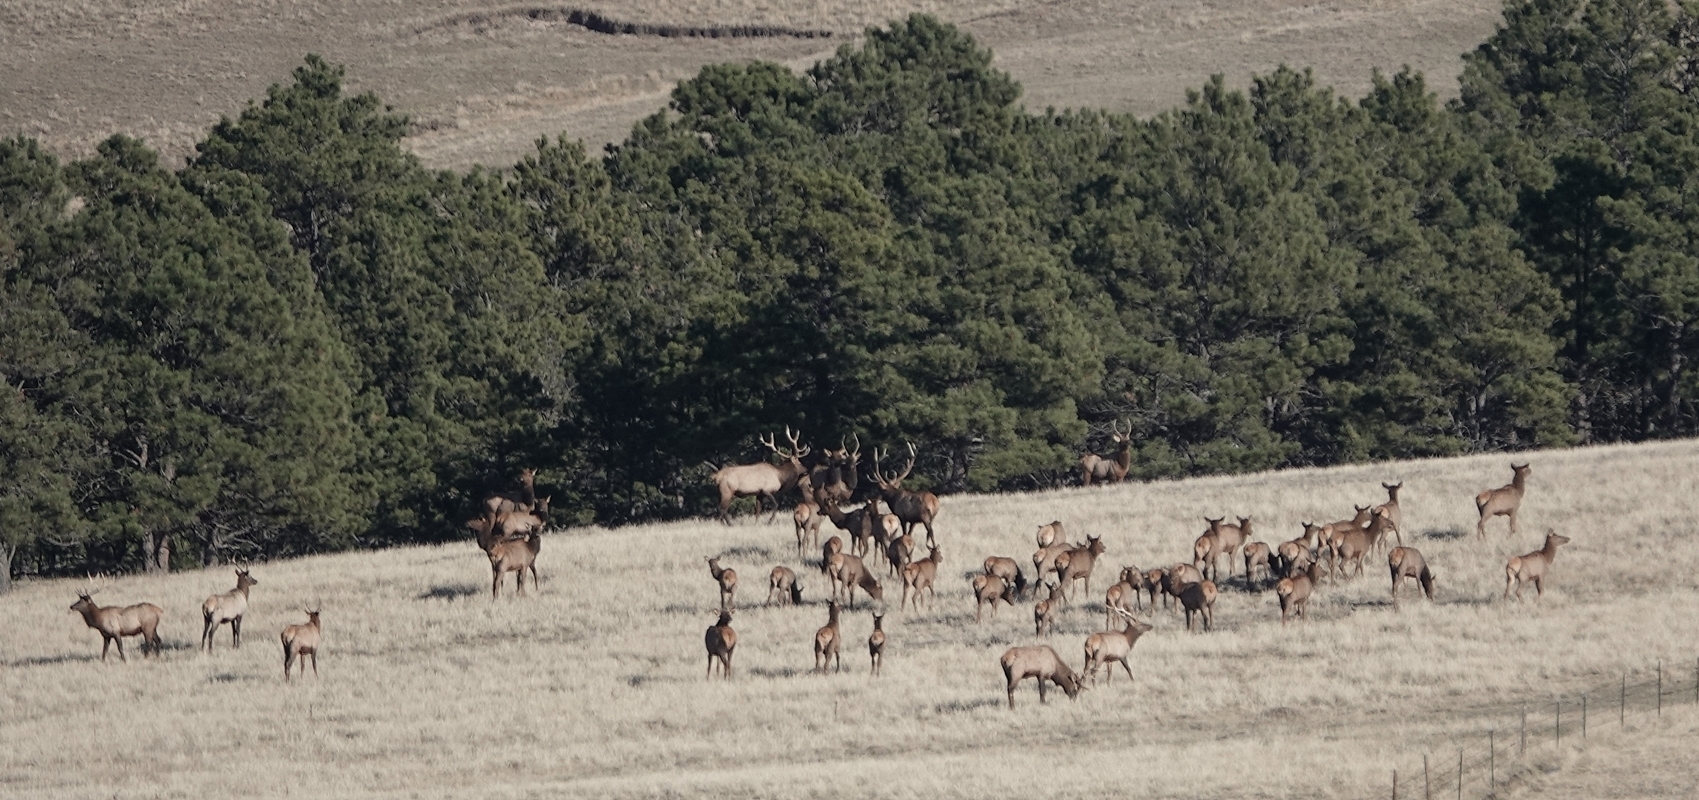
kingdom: Animalia
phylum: Chordata
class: Mammalia
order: Artiodactyla
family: Cervidae
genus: Cervus
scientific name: Cervus elaphus
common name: Red deer
